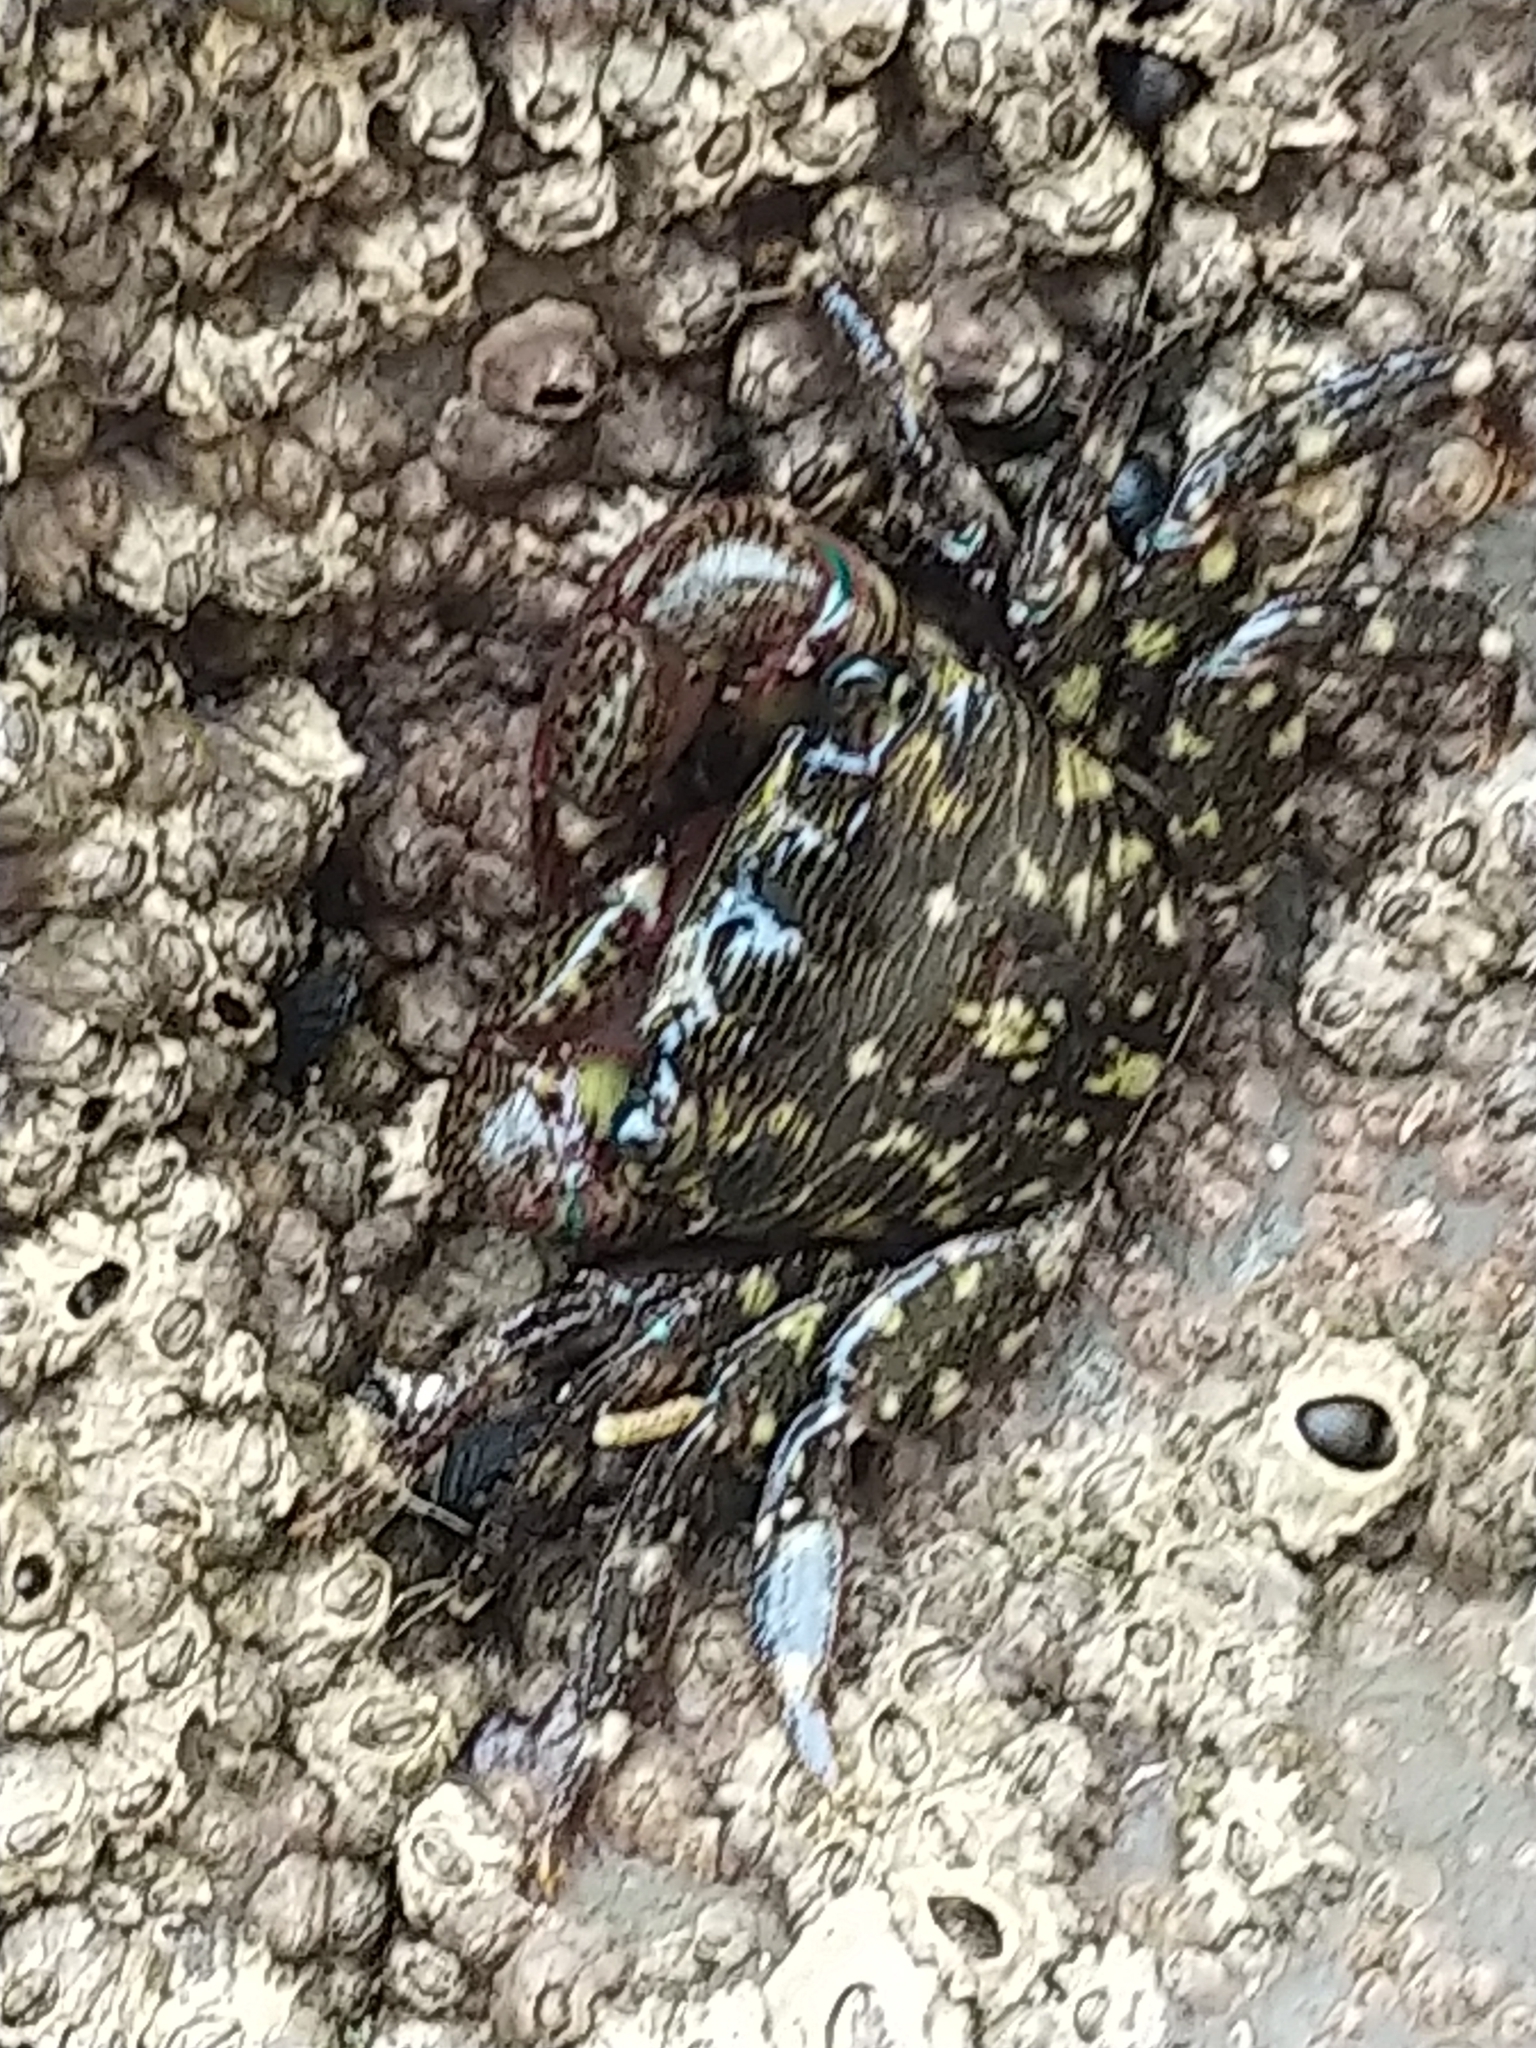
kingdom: Animalia
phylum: Arthropoda
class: Malacostraca
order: Decapoda
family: Grapsidae
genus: Pachygrapsus
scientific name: Pachygrapsus crassipes
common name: Striped shore crab
